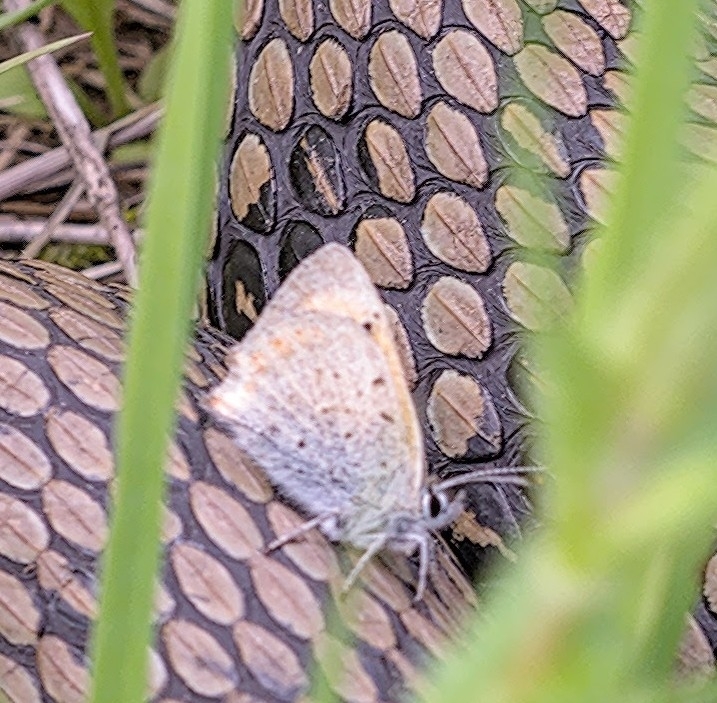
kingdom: Animalia
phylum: Arthropoda
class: Insecta
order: Lepidoptera
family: Lycaenidae
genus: Lycaena
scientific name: Lycaena phlaeas
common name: Small copper
